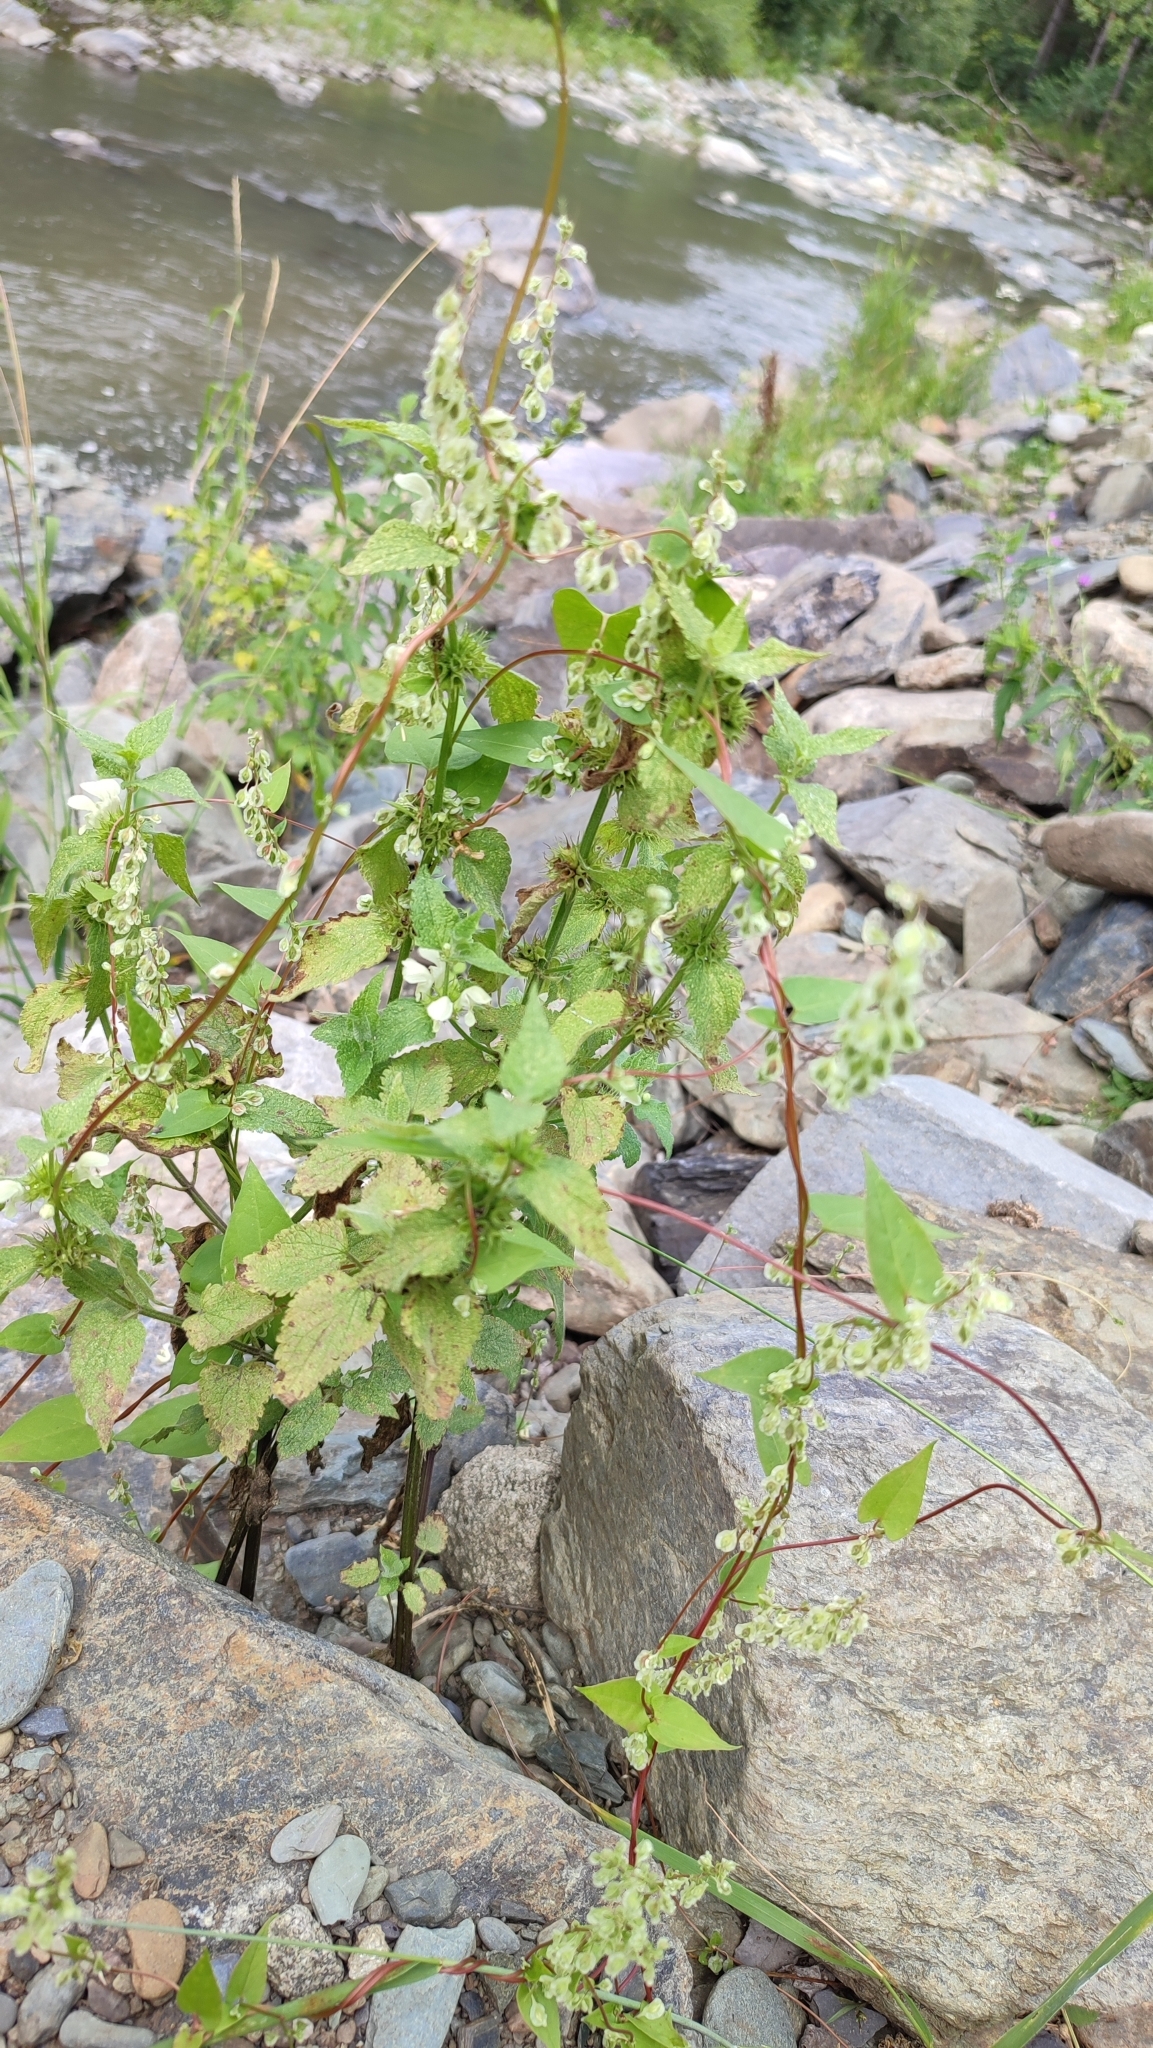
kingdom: Plantae
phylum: Tracheophyta
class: Magnoliopsida
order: Caryophyllales
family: Polygonaceae
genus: Fallopia
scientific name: Fallopia dumetorum
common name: Copse-bindweed
